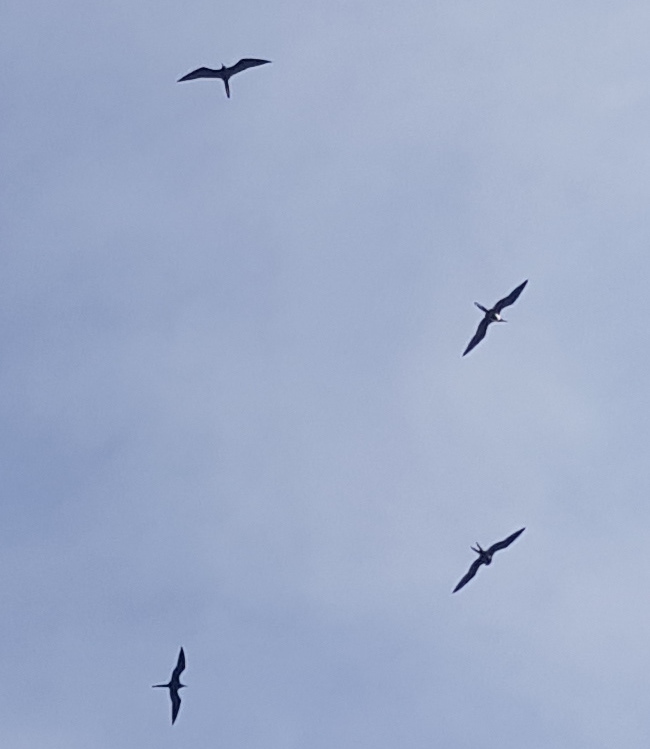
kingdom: Animalia
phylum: Chordata
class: Aves
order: Suliformes
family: Fregatidae
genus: Fregata
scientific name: Fregata magnificens
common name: Magnificent frigatebird
